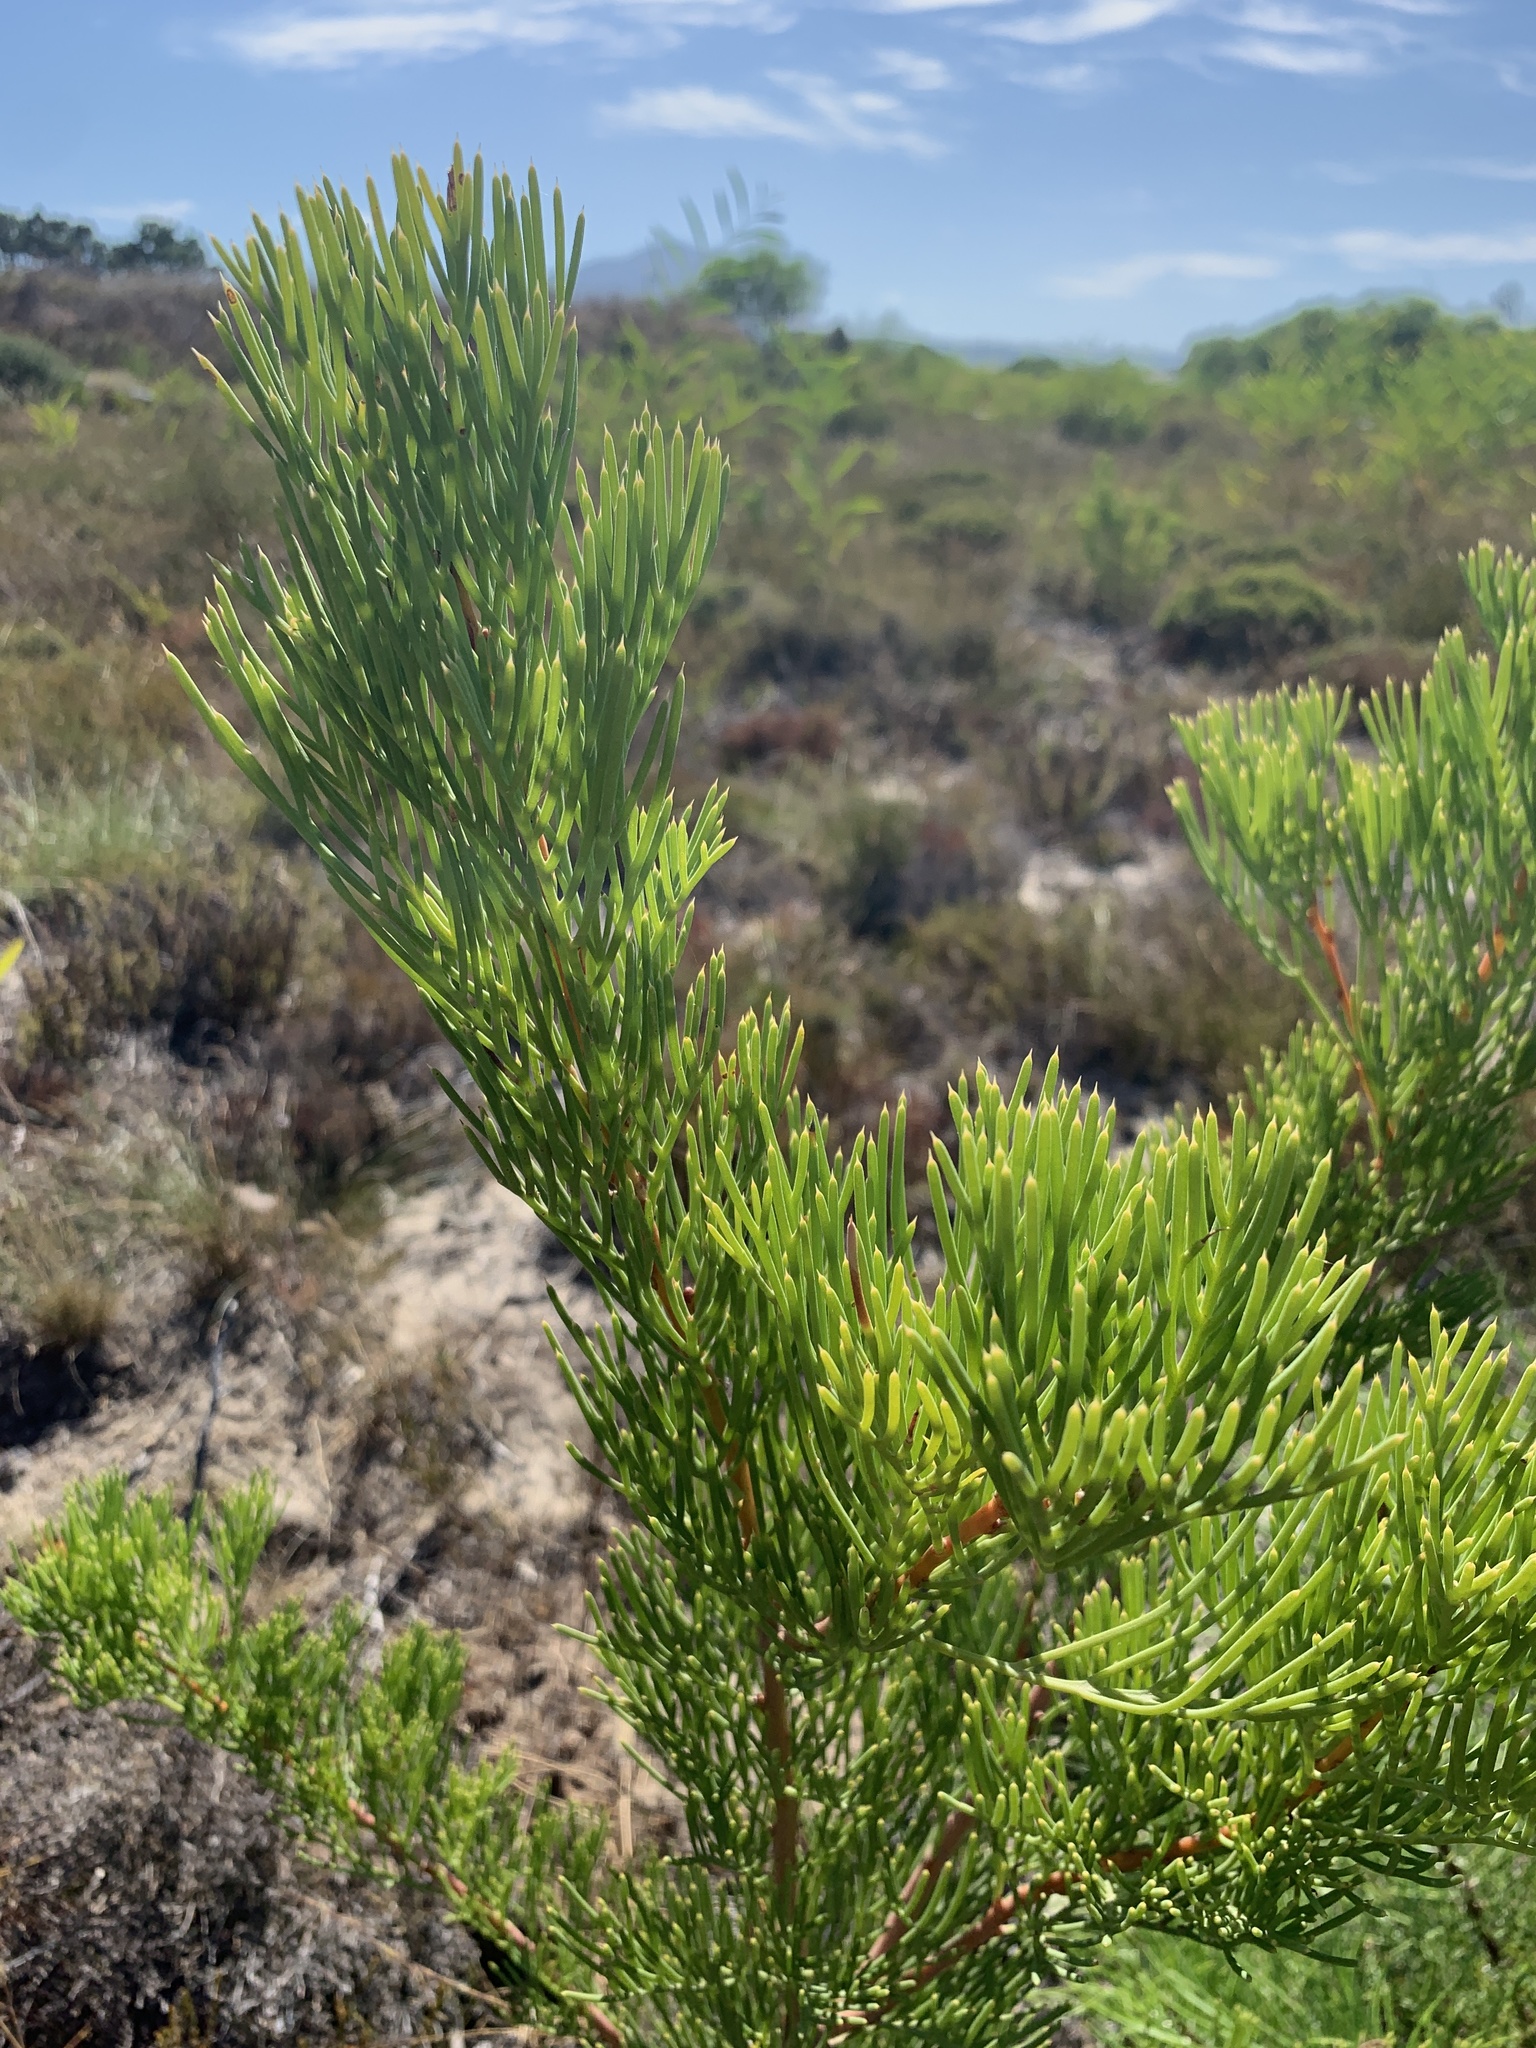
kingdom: Plantae
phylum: Tracheophyta
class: Magnoliopsida
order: Proteales
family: Proteaceae
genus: Hakea
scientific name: Hakea drupacea
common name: Sweet hakea
